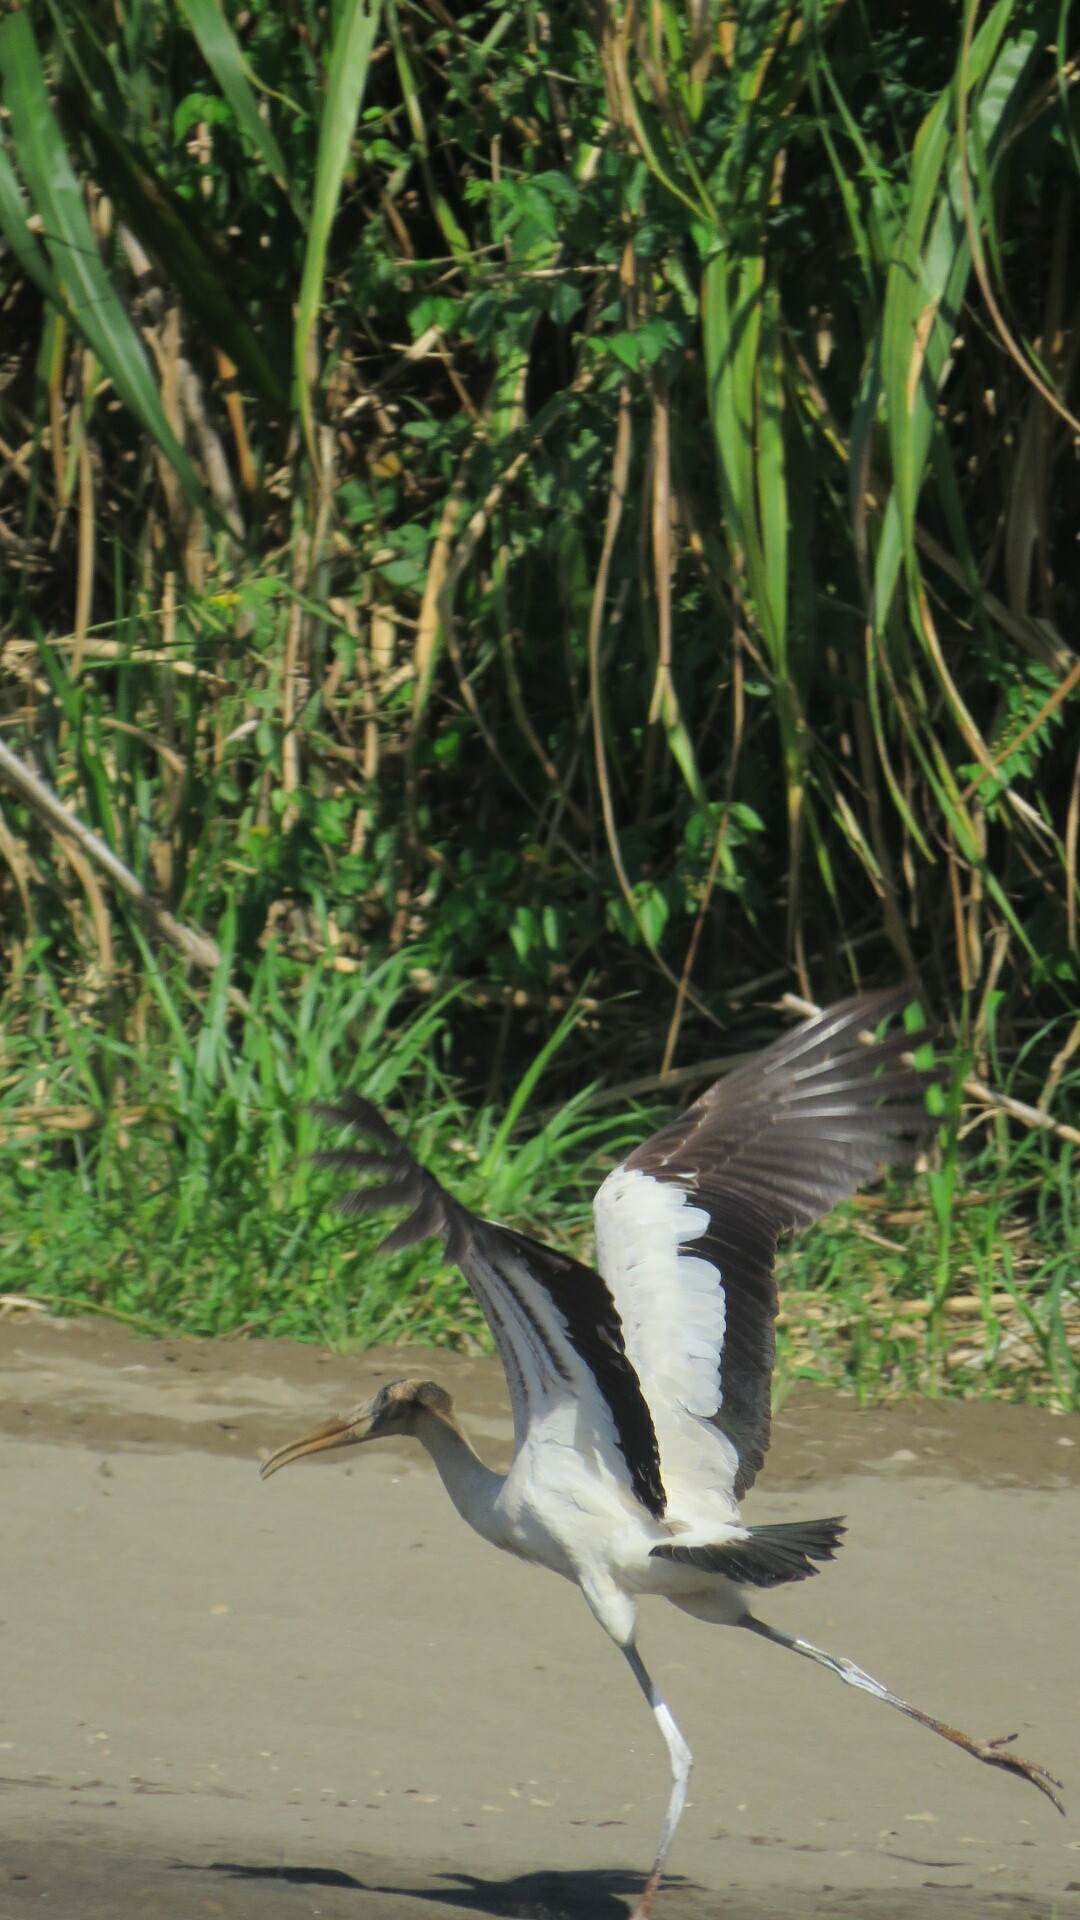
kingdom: Animalia
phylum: Chordata
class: Aves
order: Ciconiiformes
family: Ciconiidae
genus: Mycteria
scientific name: Mycteria americana
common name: Wood stork
